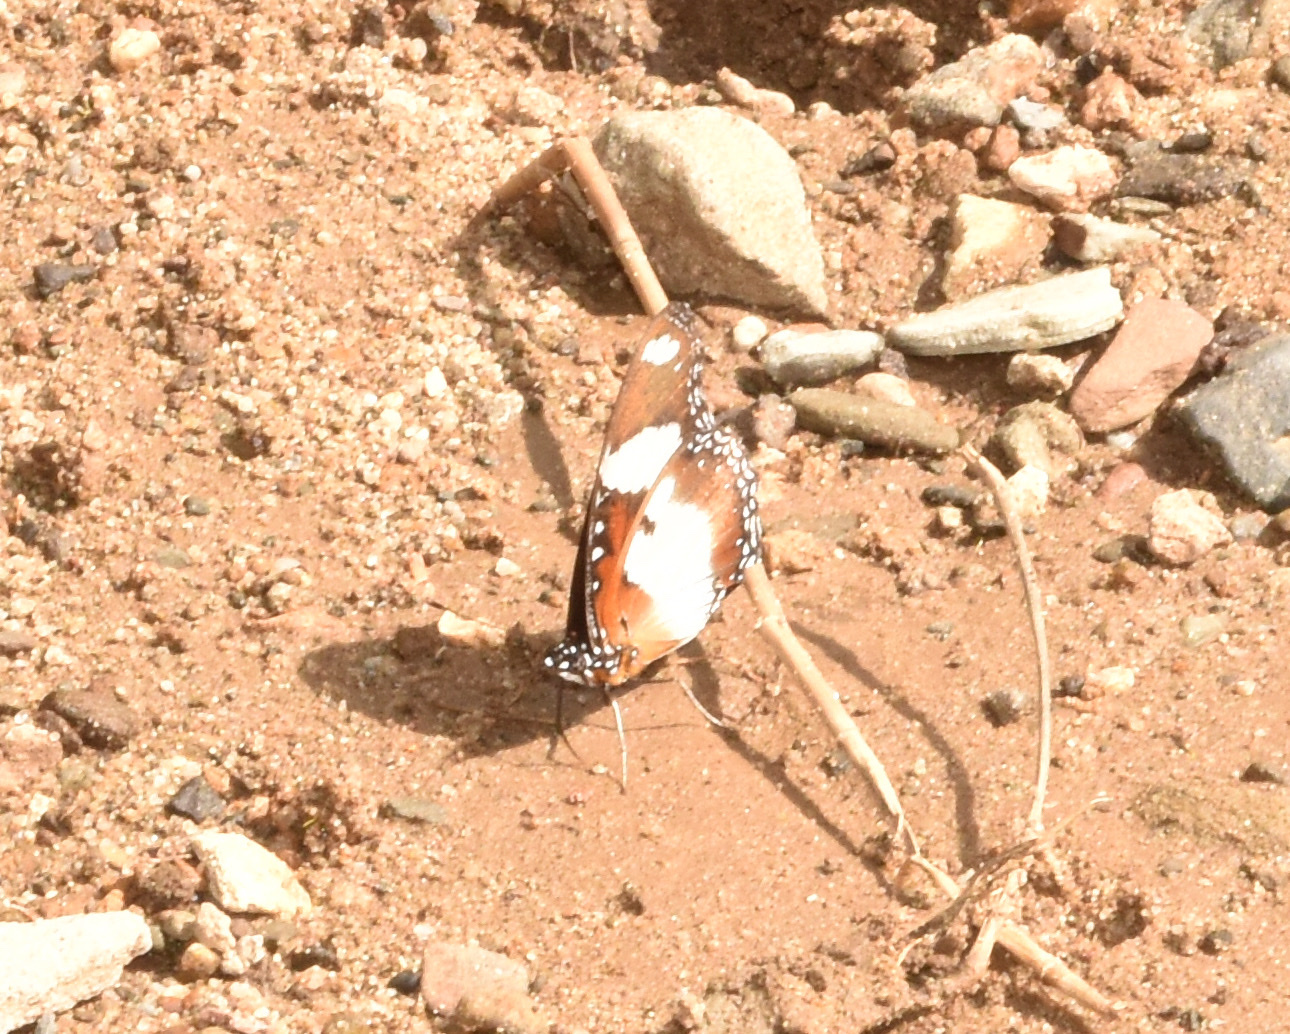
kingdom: Animalia
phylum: Arthropoda
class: Insecta
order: Lepidoptera
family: Nymphalidae
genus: Hypolimnas
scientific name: Hypolimnas misippus
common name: False plain tiger
